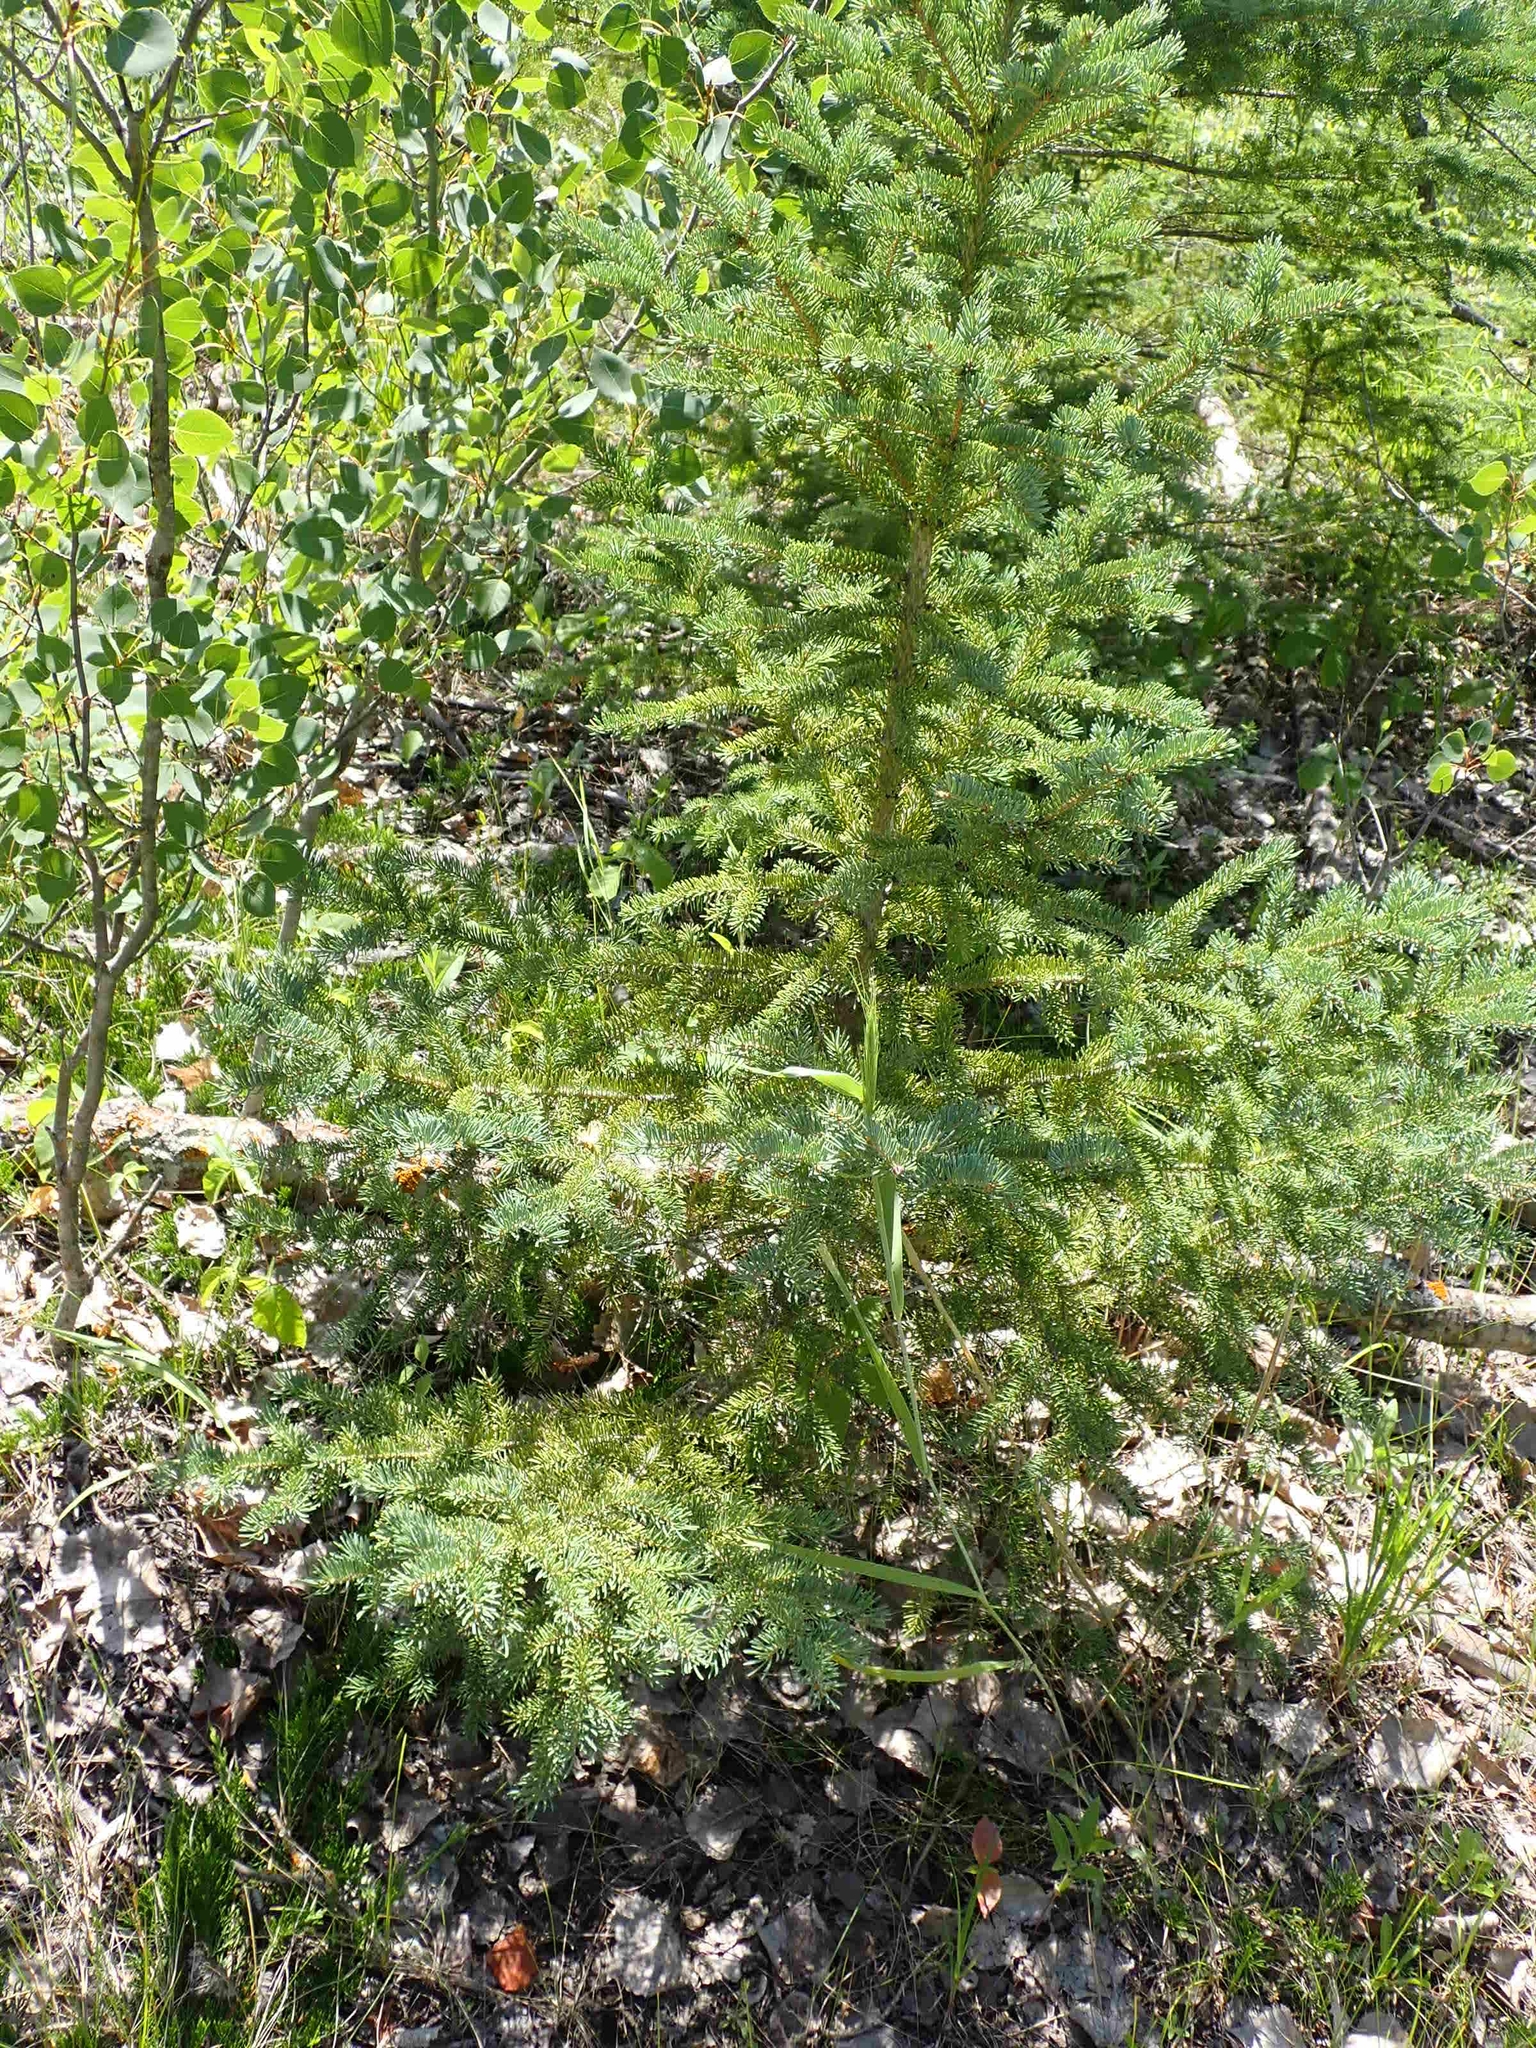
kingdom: Plantae
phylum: Tracheophyta
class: Pinopsida
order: Pinales
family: Pinaceae
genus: Picea
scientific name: Picea glauca
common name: White spruce
